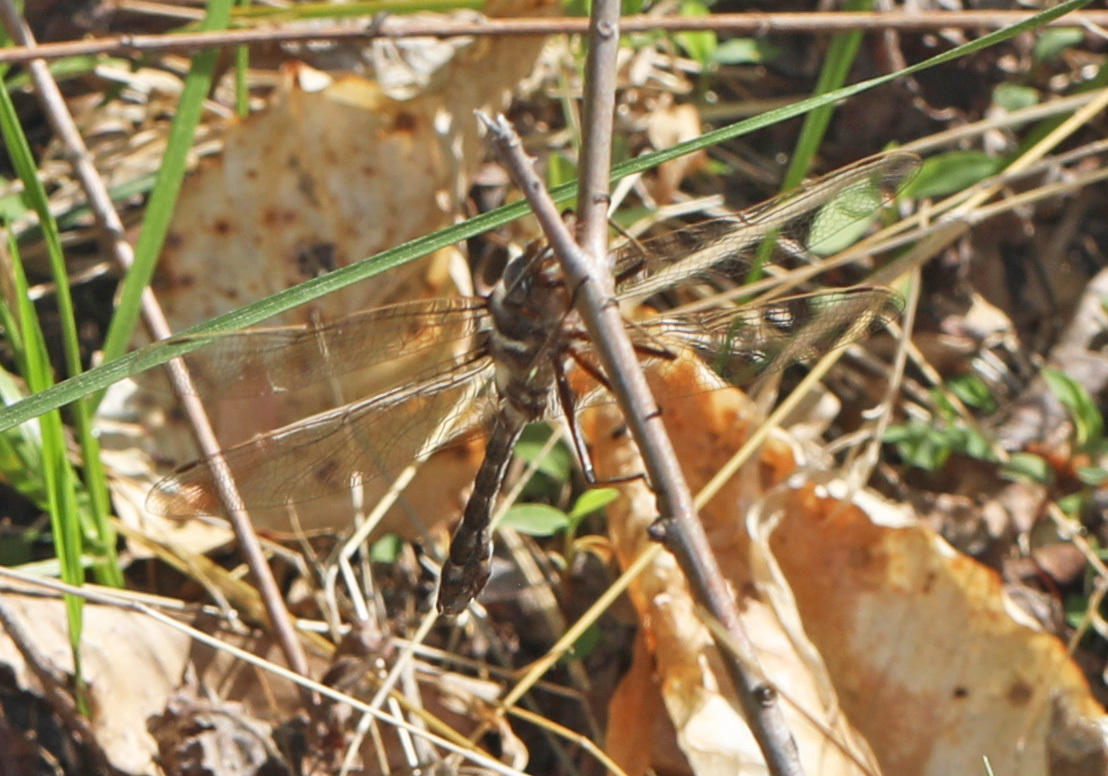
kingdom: Animalia
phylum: Arthropoda
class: Insecta
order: Odonata
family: Macromiidae
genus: Didymops
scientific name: Didymops transversa
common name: Stream cruiser
